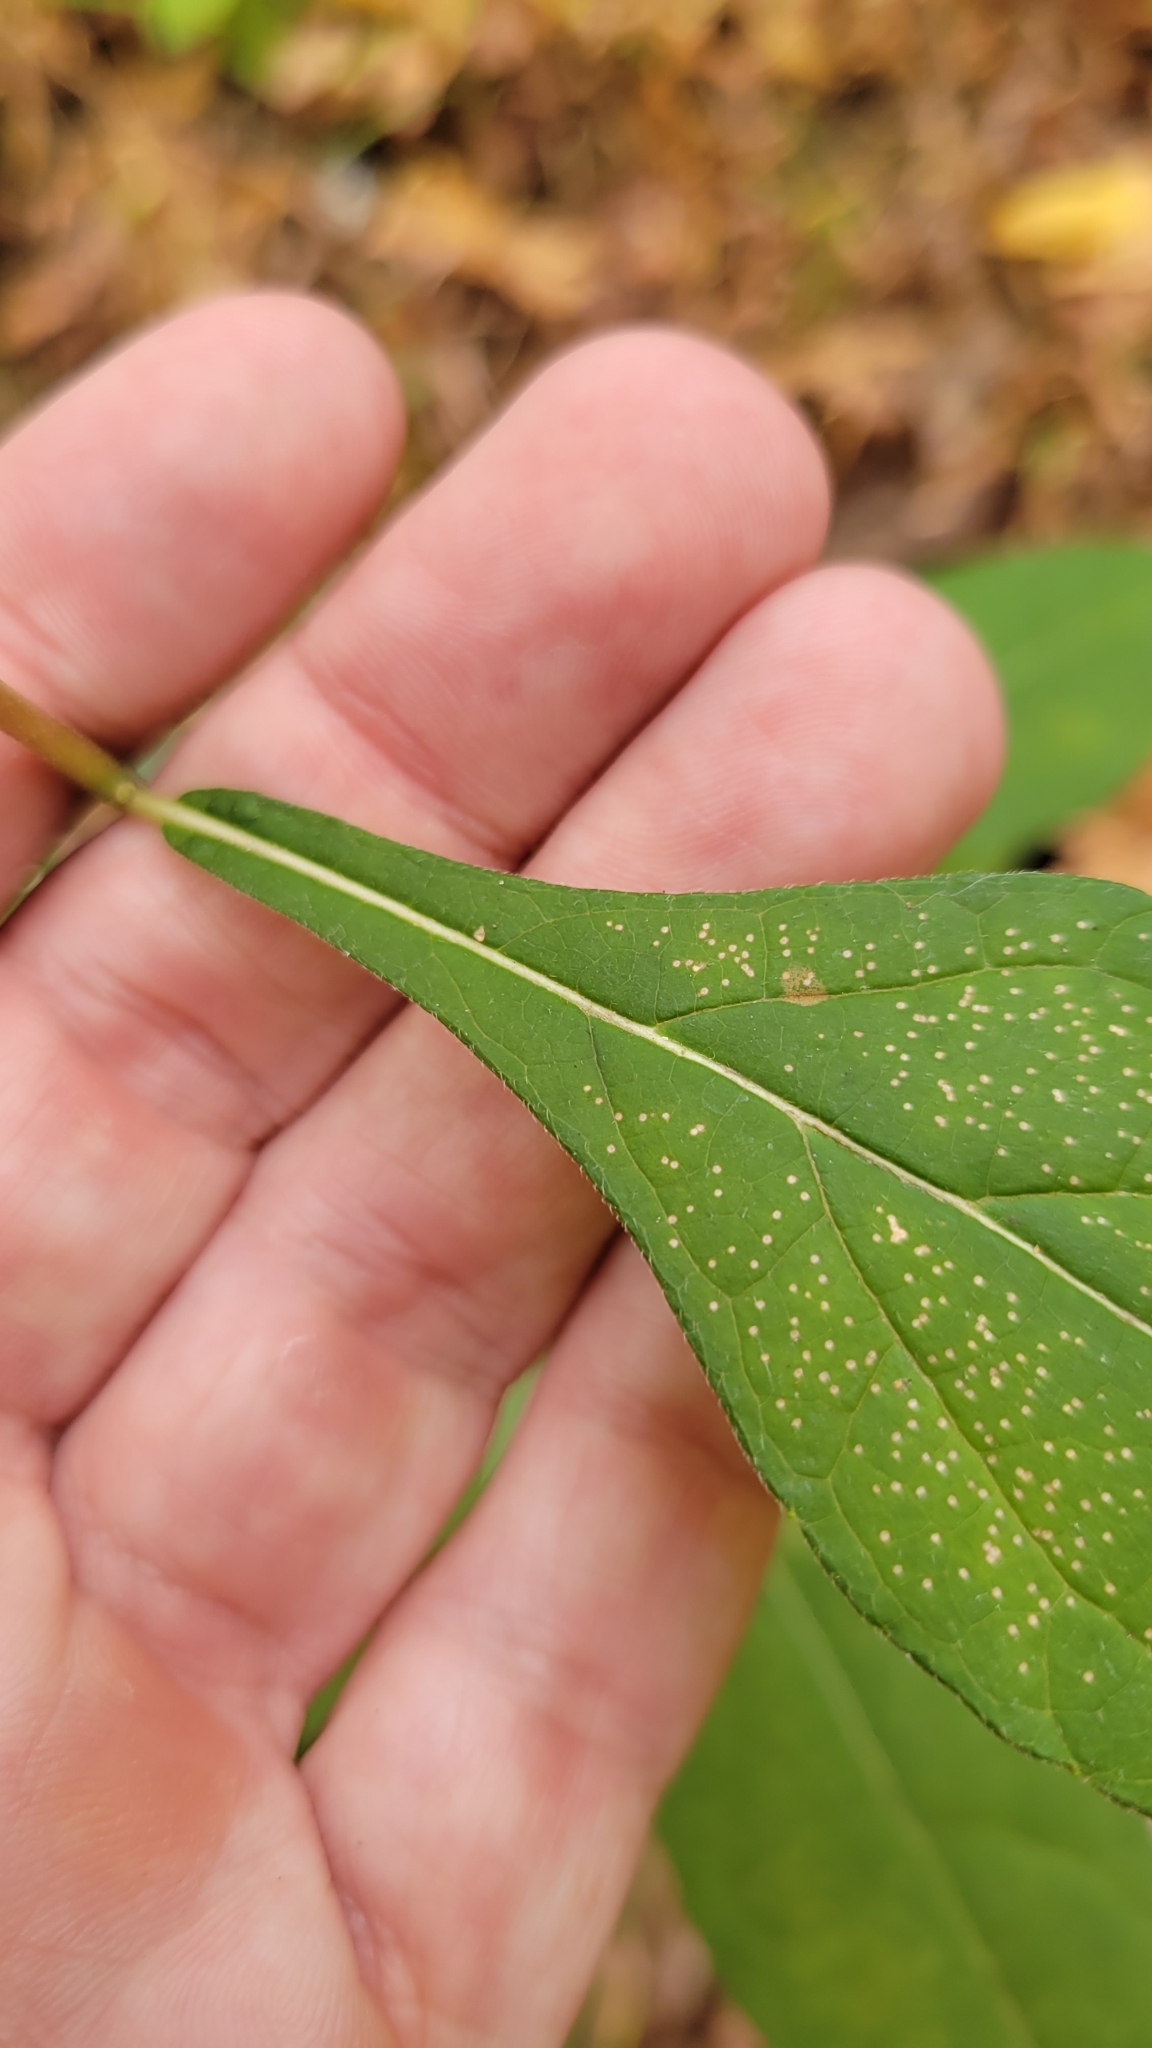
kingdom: Plantae
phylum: Tracheophyta
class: Magnoliopsida
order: Asterales
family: Asteraceae
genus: Verbesina
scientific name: Verbesina virginica
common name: Frostweed
